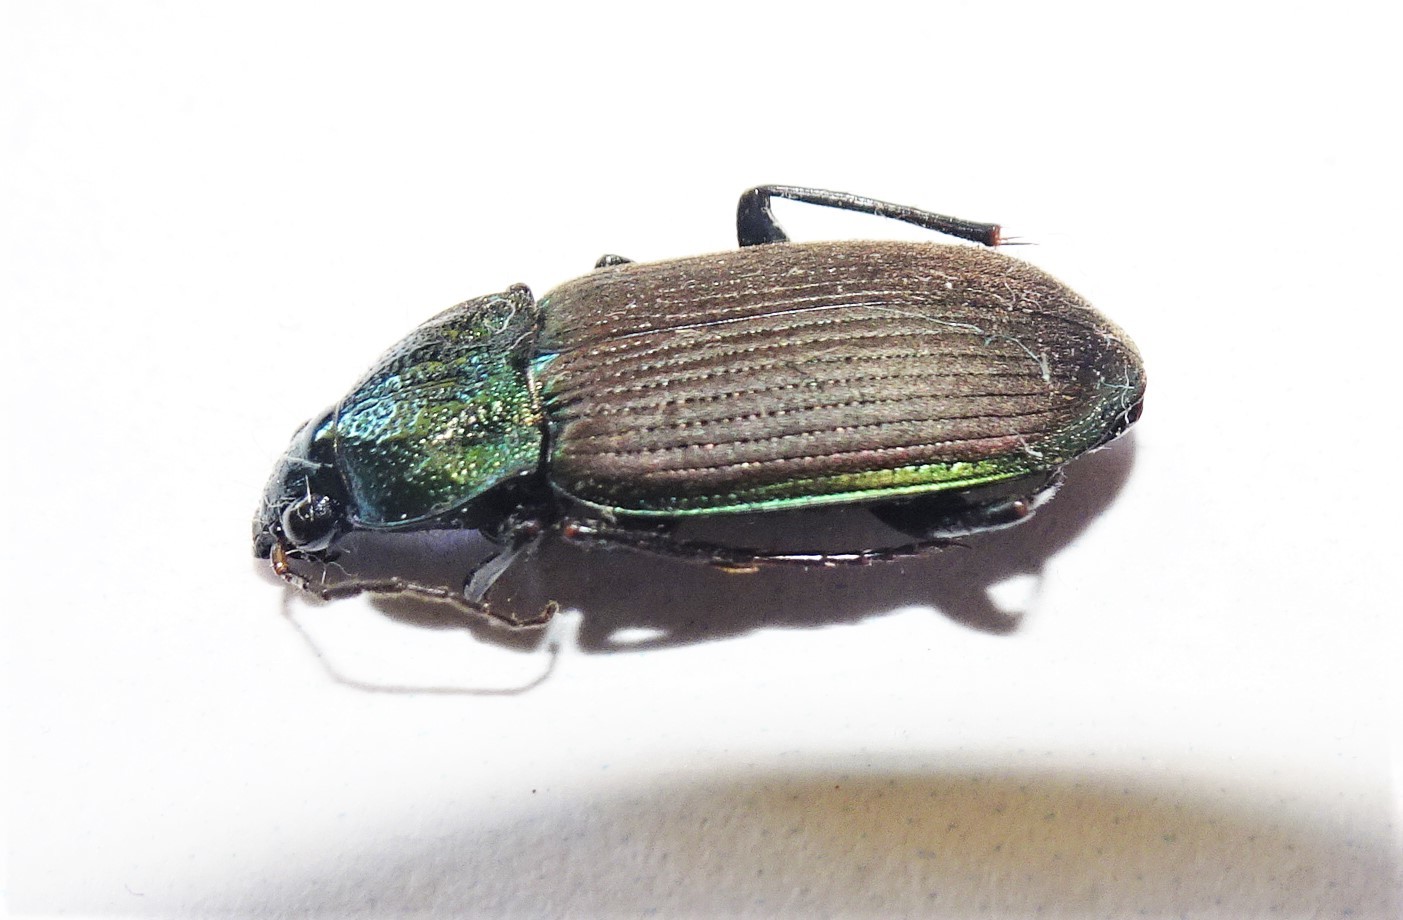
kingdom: Animalia
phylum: Arthropoda
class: Insecta
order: Coleoptera
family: Carabidae
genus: Chlaenius
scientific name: Chlaenius australis
